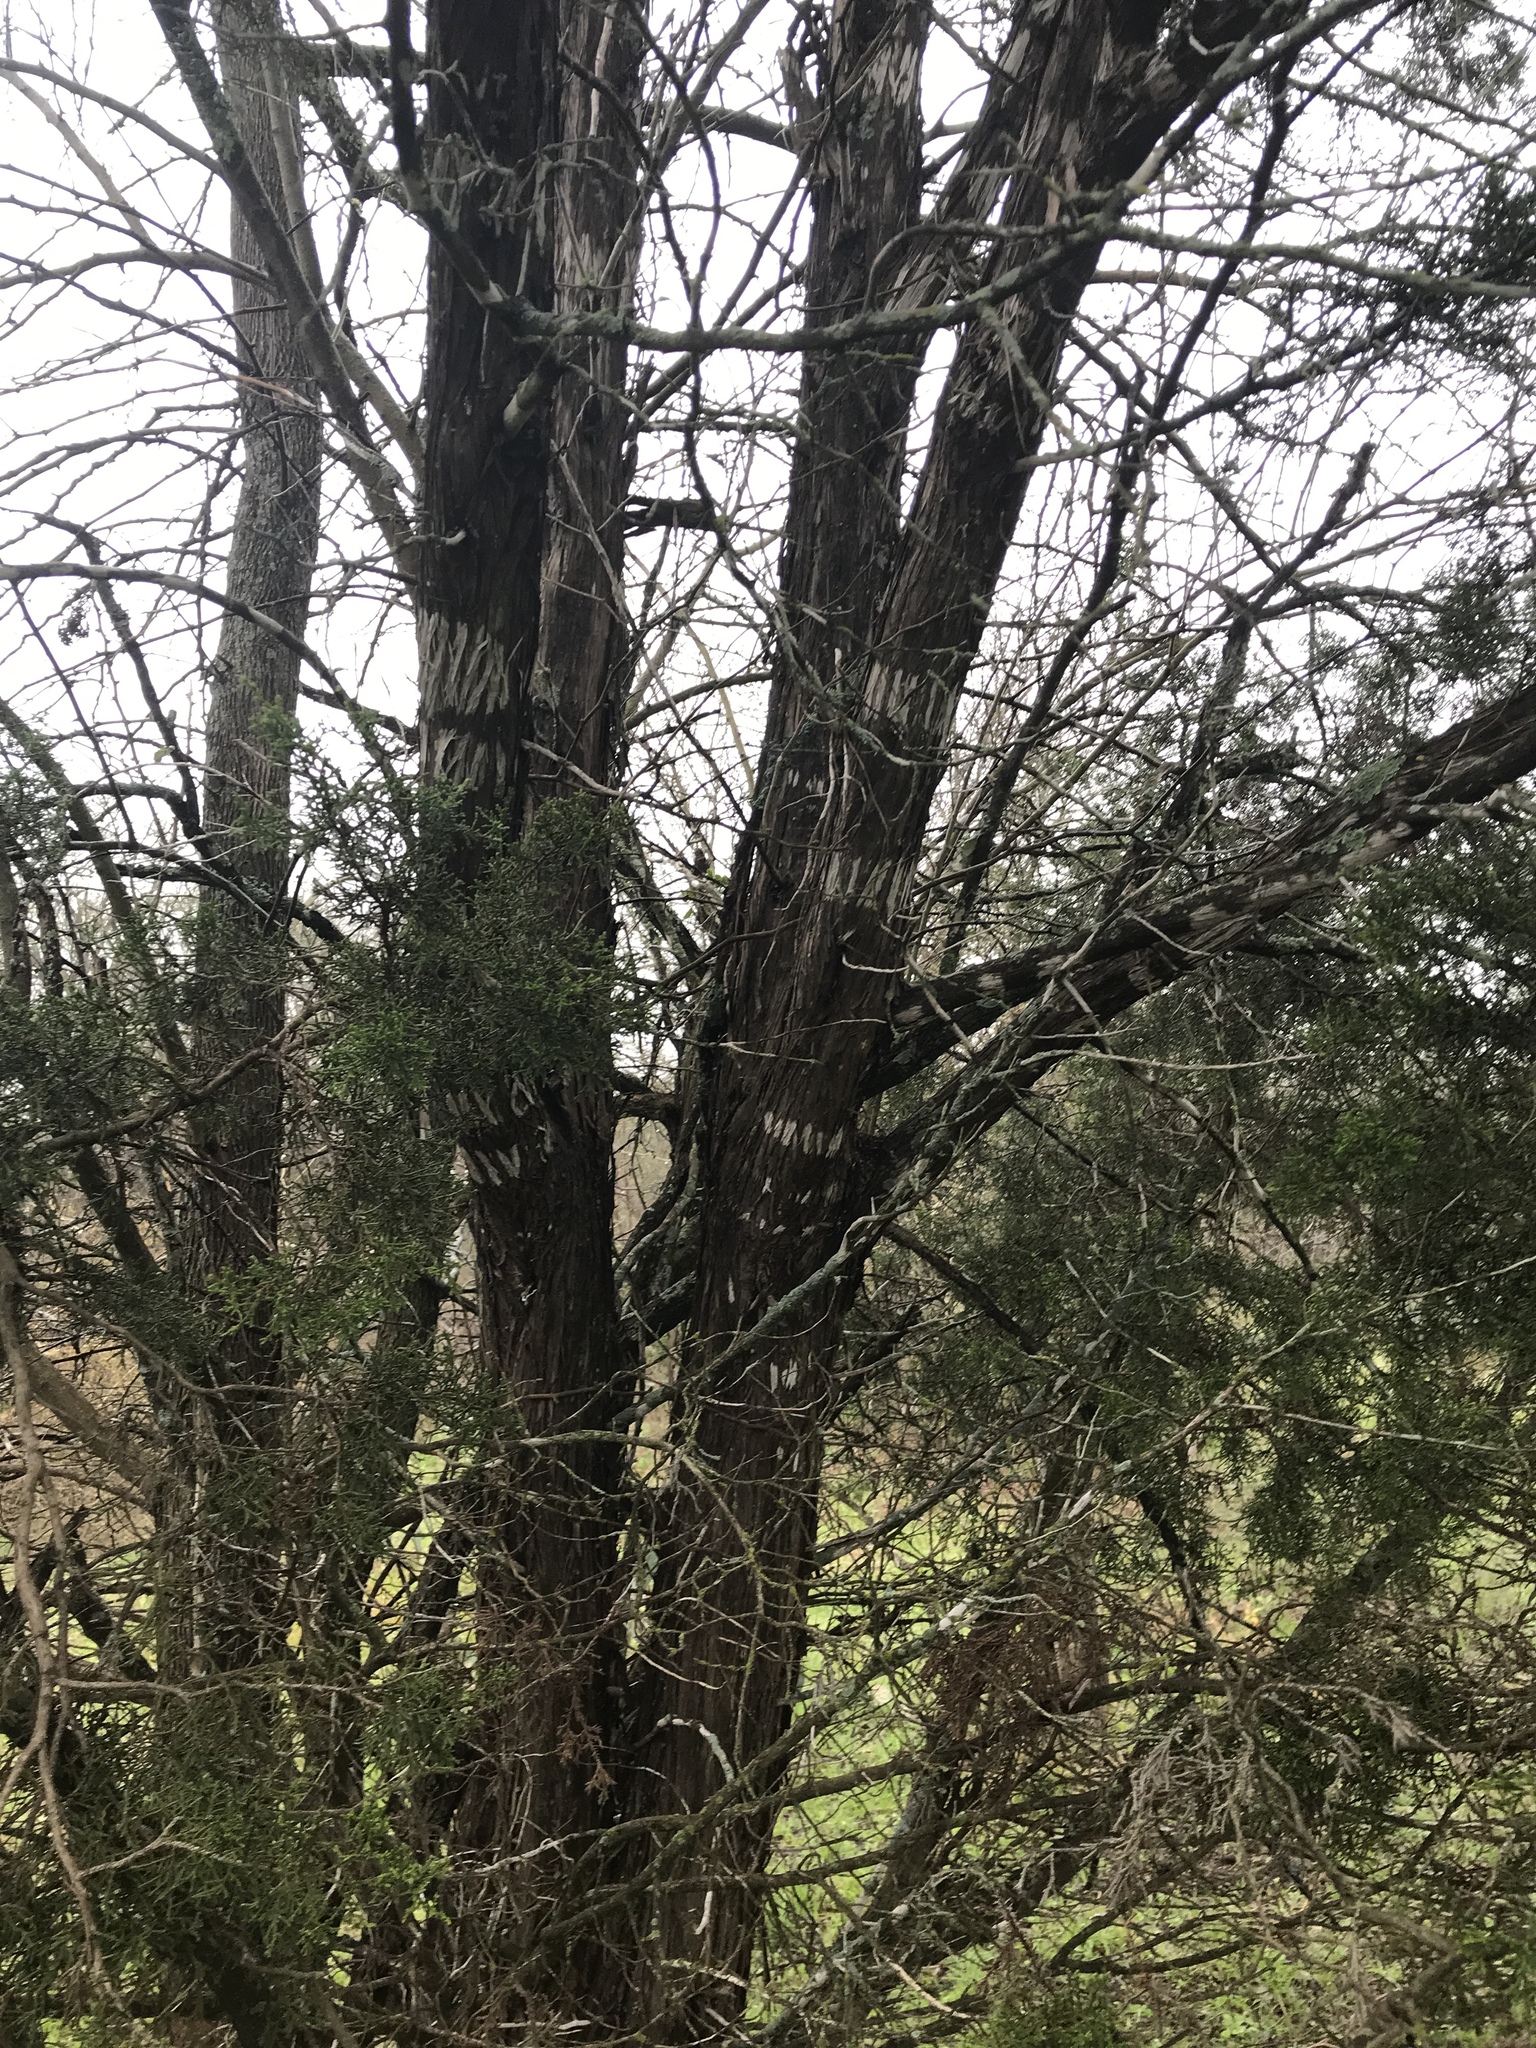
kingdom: Plantae
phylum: Tracheophyta
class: Pinopsida
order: Pinales
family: Cupressaceae
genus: Juniperus
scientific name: Juniperus ashei
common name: Mexican juniper
